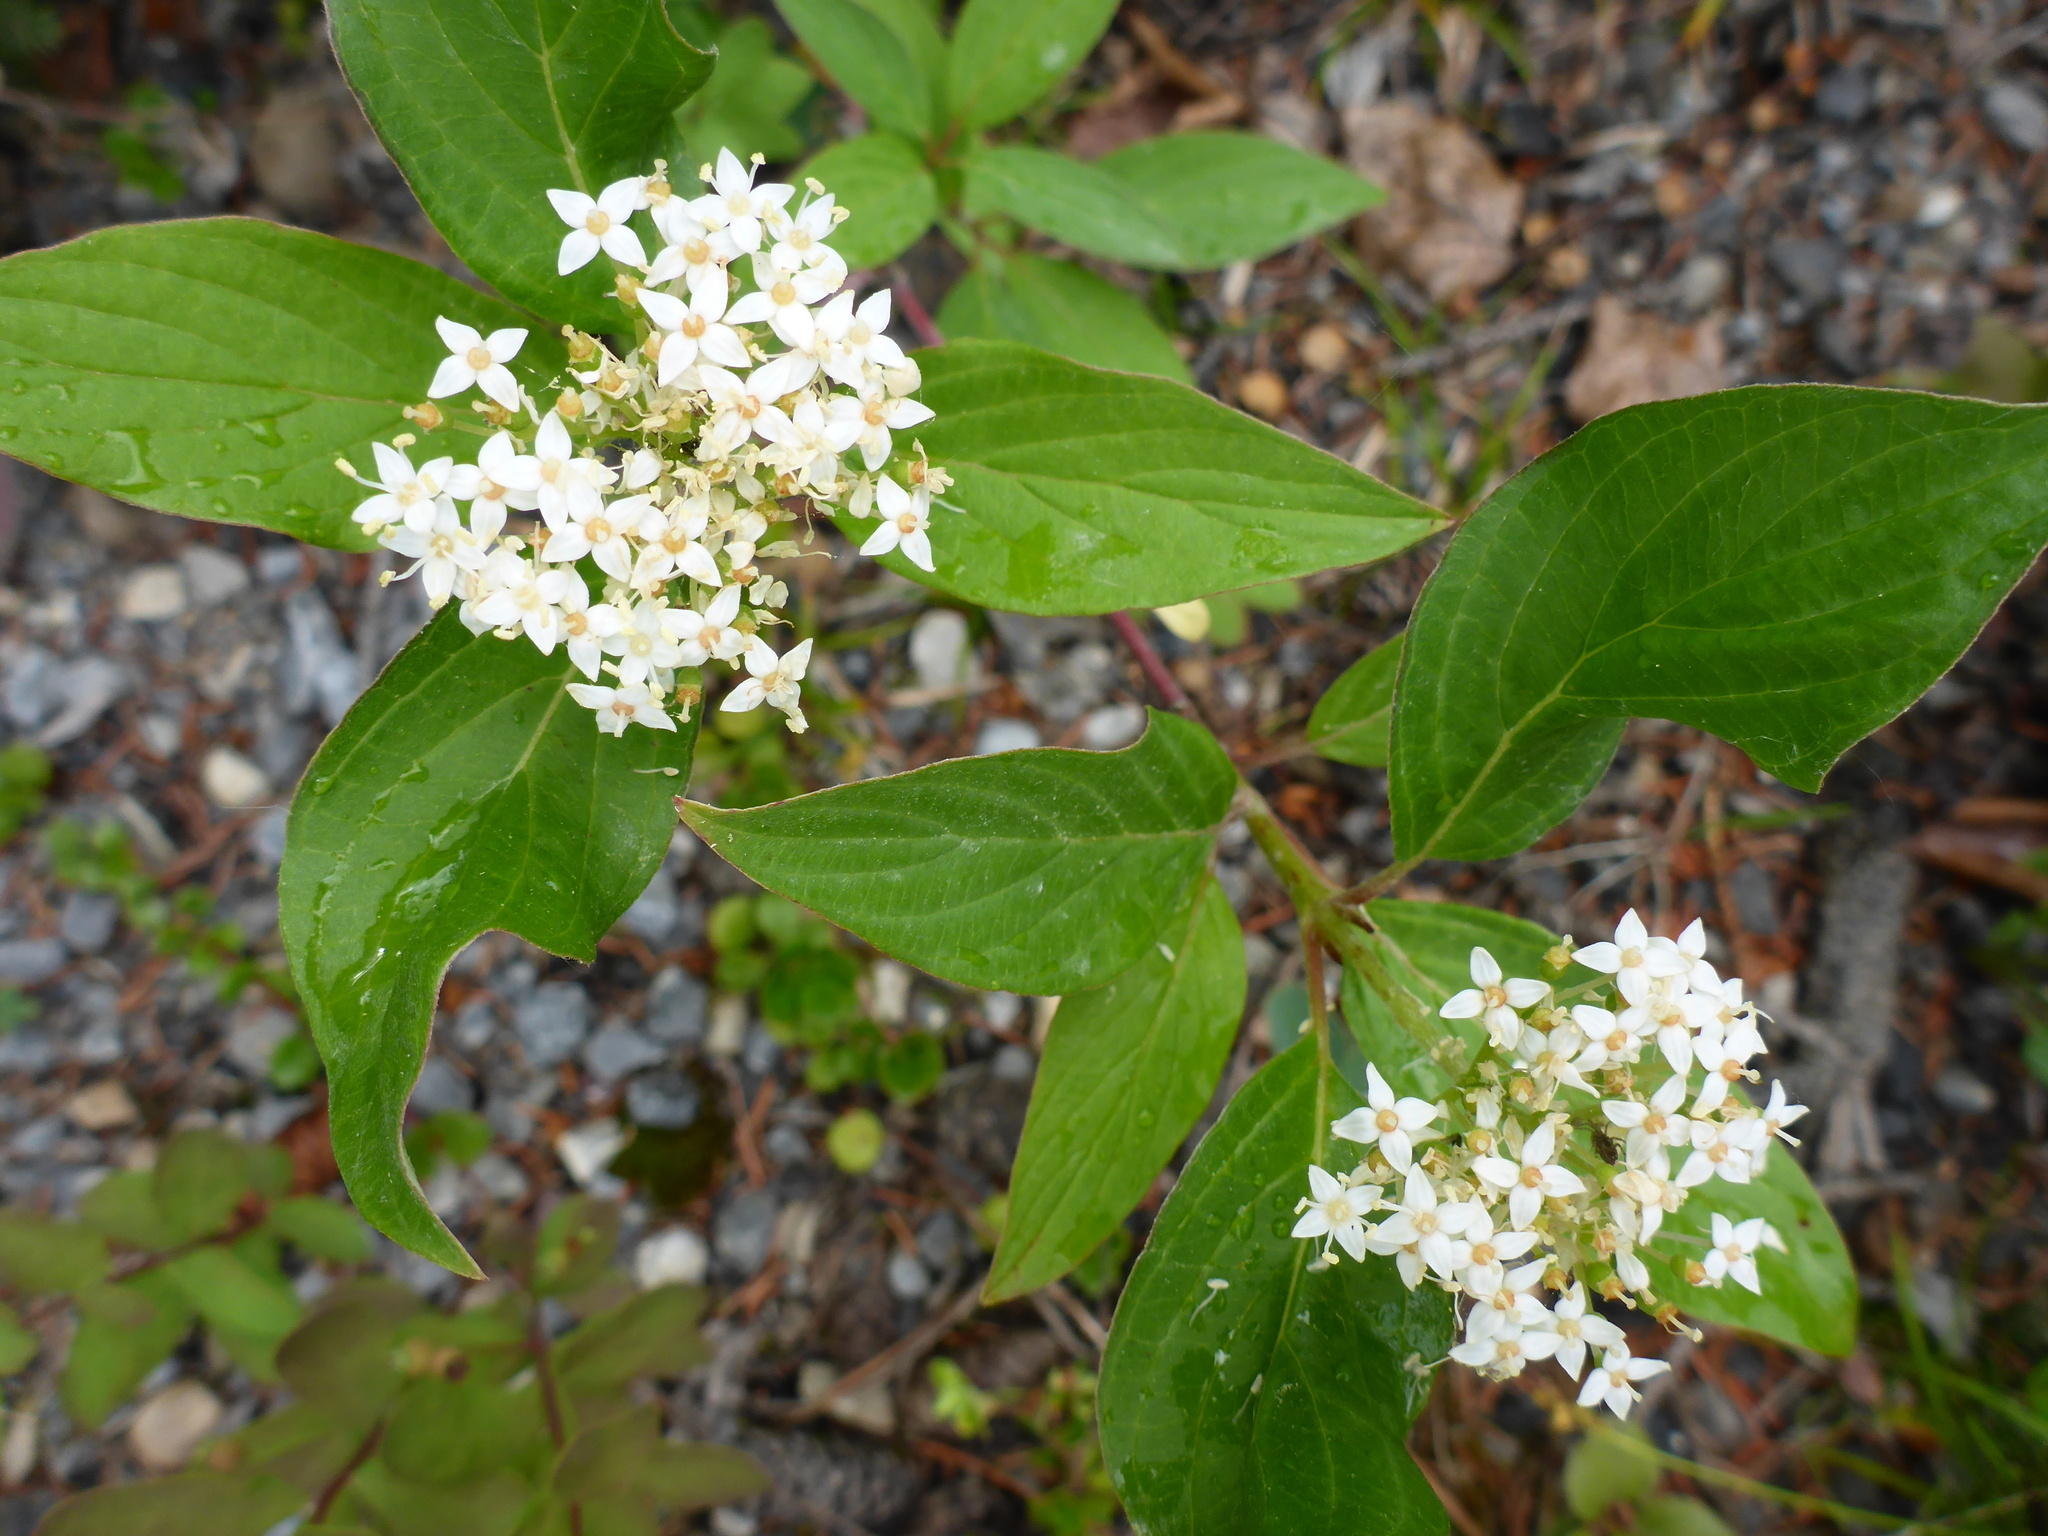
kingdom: Plantae
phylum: Tracheophyta
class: Magnoliopsida
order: Cornales
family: Cornaceae
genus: Cornus
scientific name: Cornus sericea
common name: Red-osier dogwood
